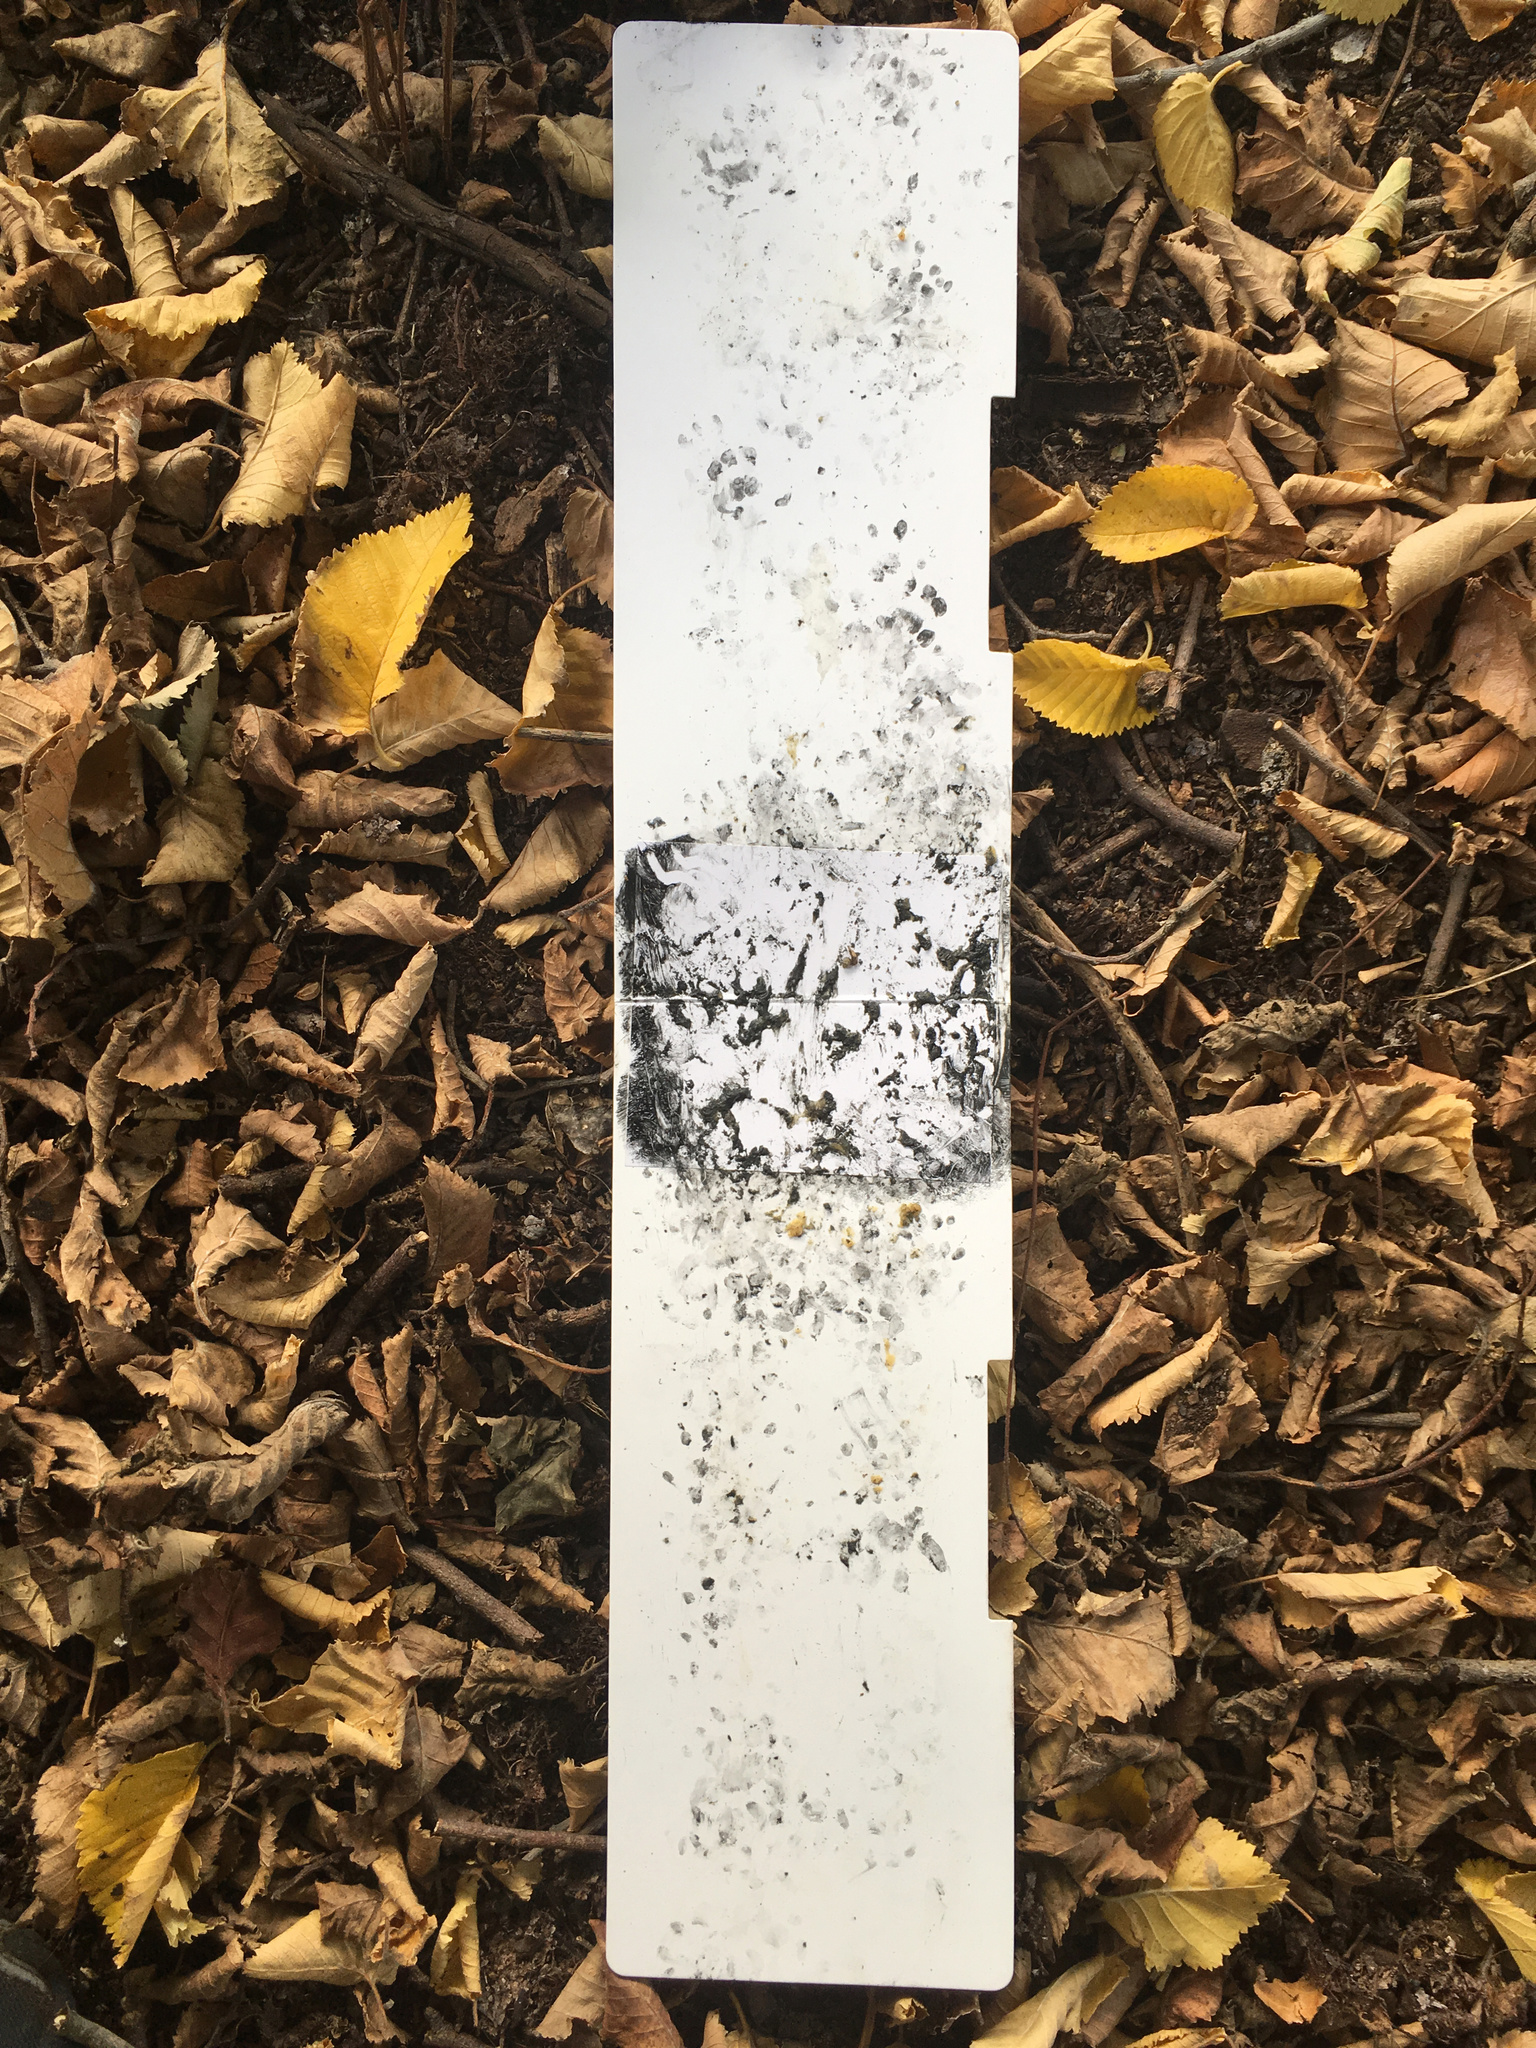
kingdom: Animalia
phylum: Chordata
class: Mammalia
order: Erinaceomorpha
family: Erinaceidae
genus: Erinaceus
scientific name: Erinaceus europaeus
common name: West european hedgehog
